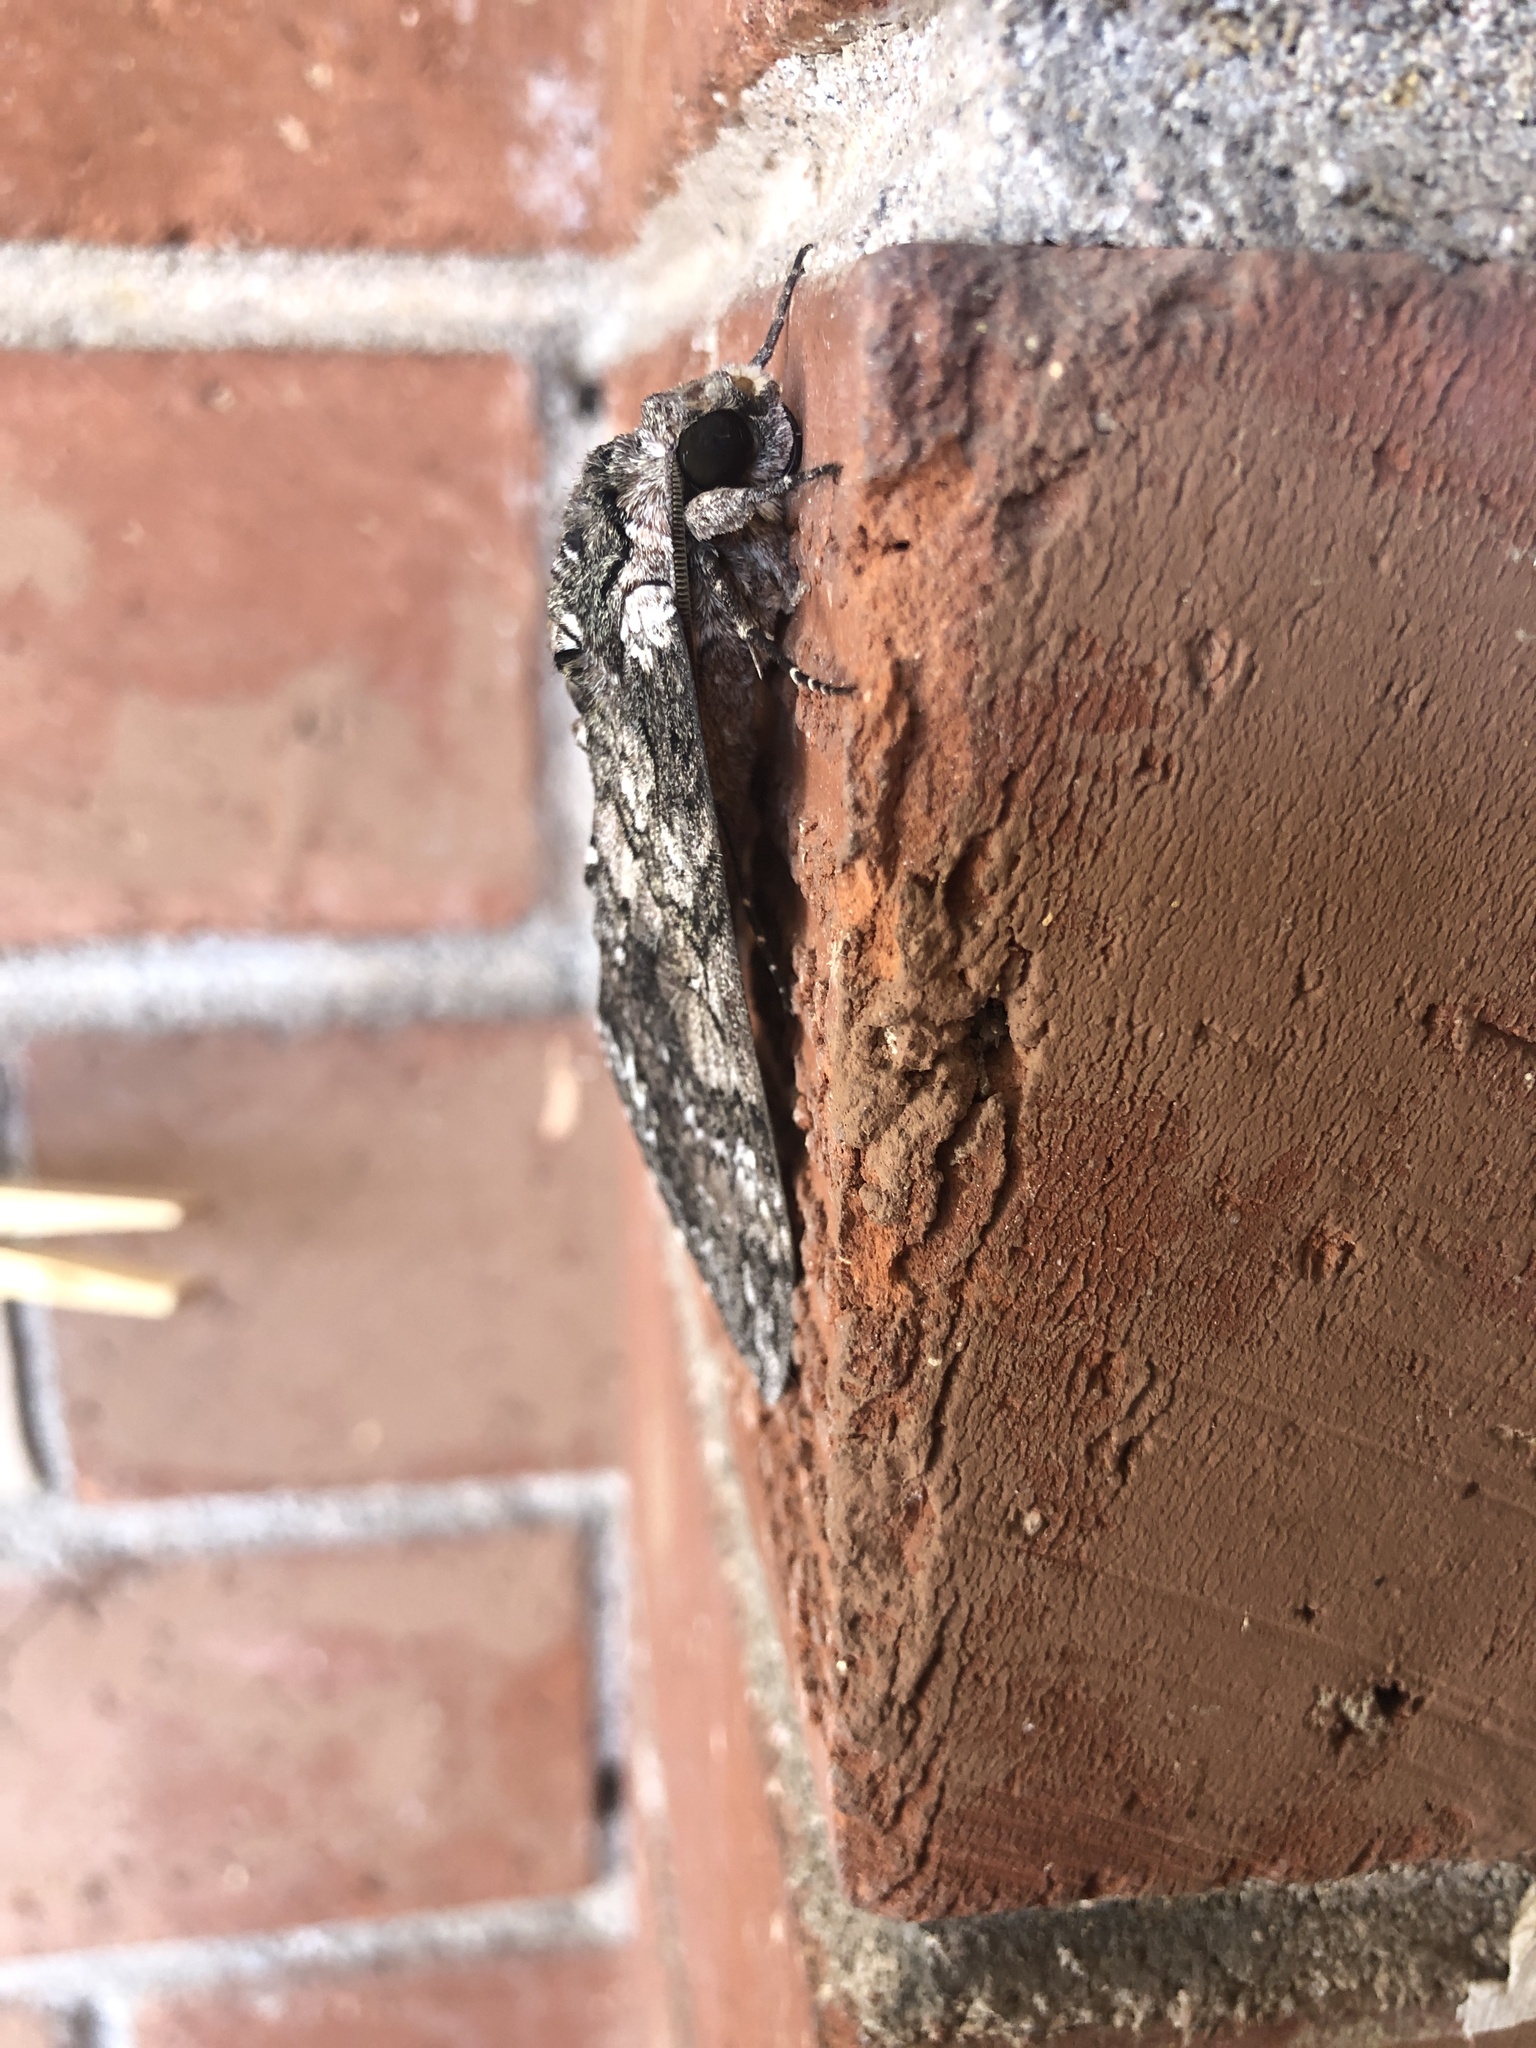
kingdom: Animalia
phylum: Arthropoda
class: Insecta
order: Lepidoptera
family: Sphingidae
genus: Manduca
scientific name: Manduca sexta
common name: Carolina sphinx
